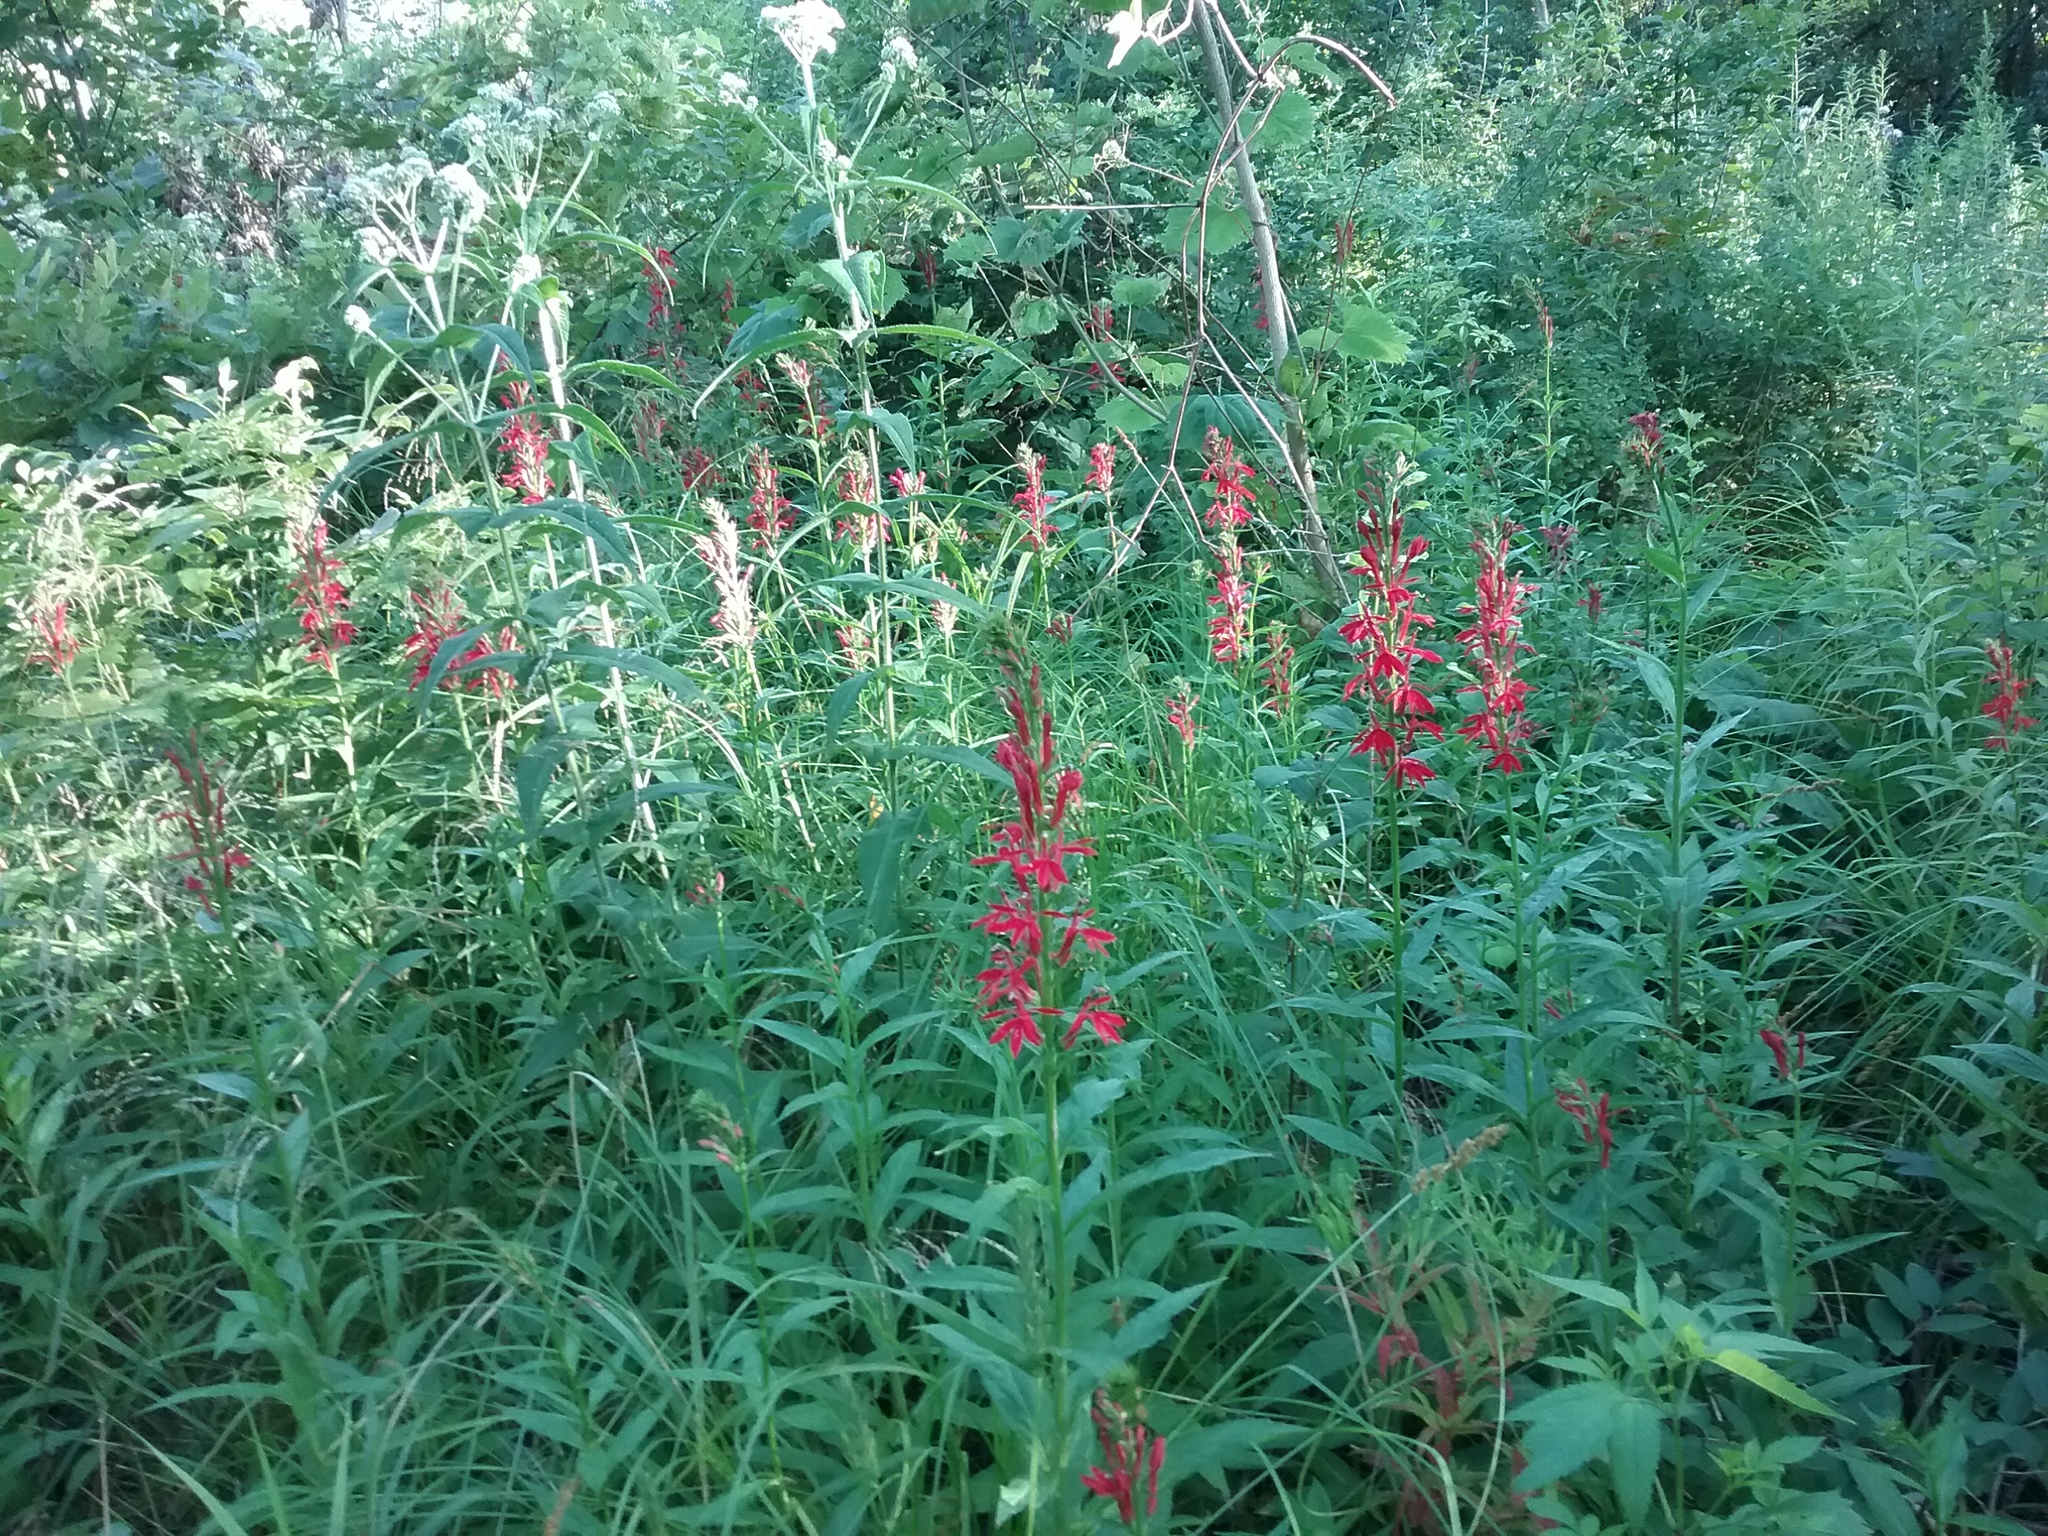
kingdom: Plantae
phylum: Tracheophyta
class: Magnoliopsida
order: Asterales
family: Campanulaceae
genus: Lobelia
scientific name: Lobelia cardinalis
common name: Cardinal flower
